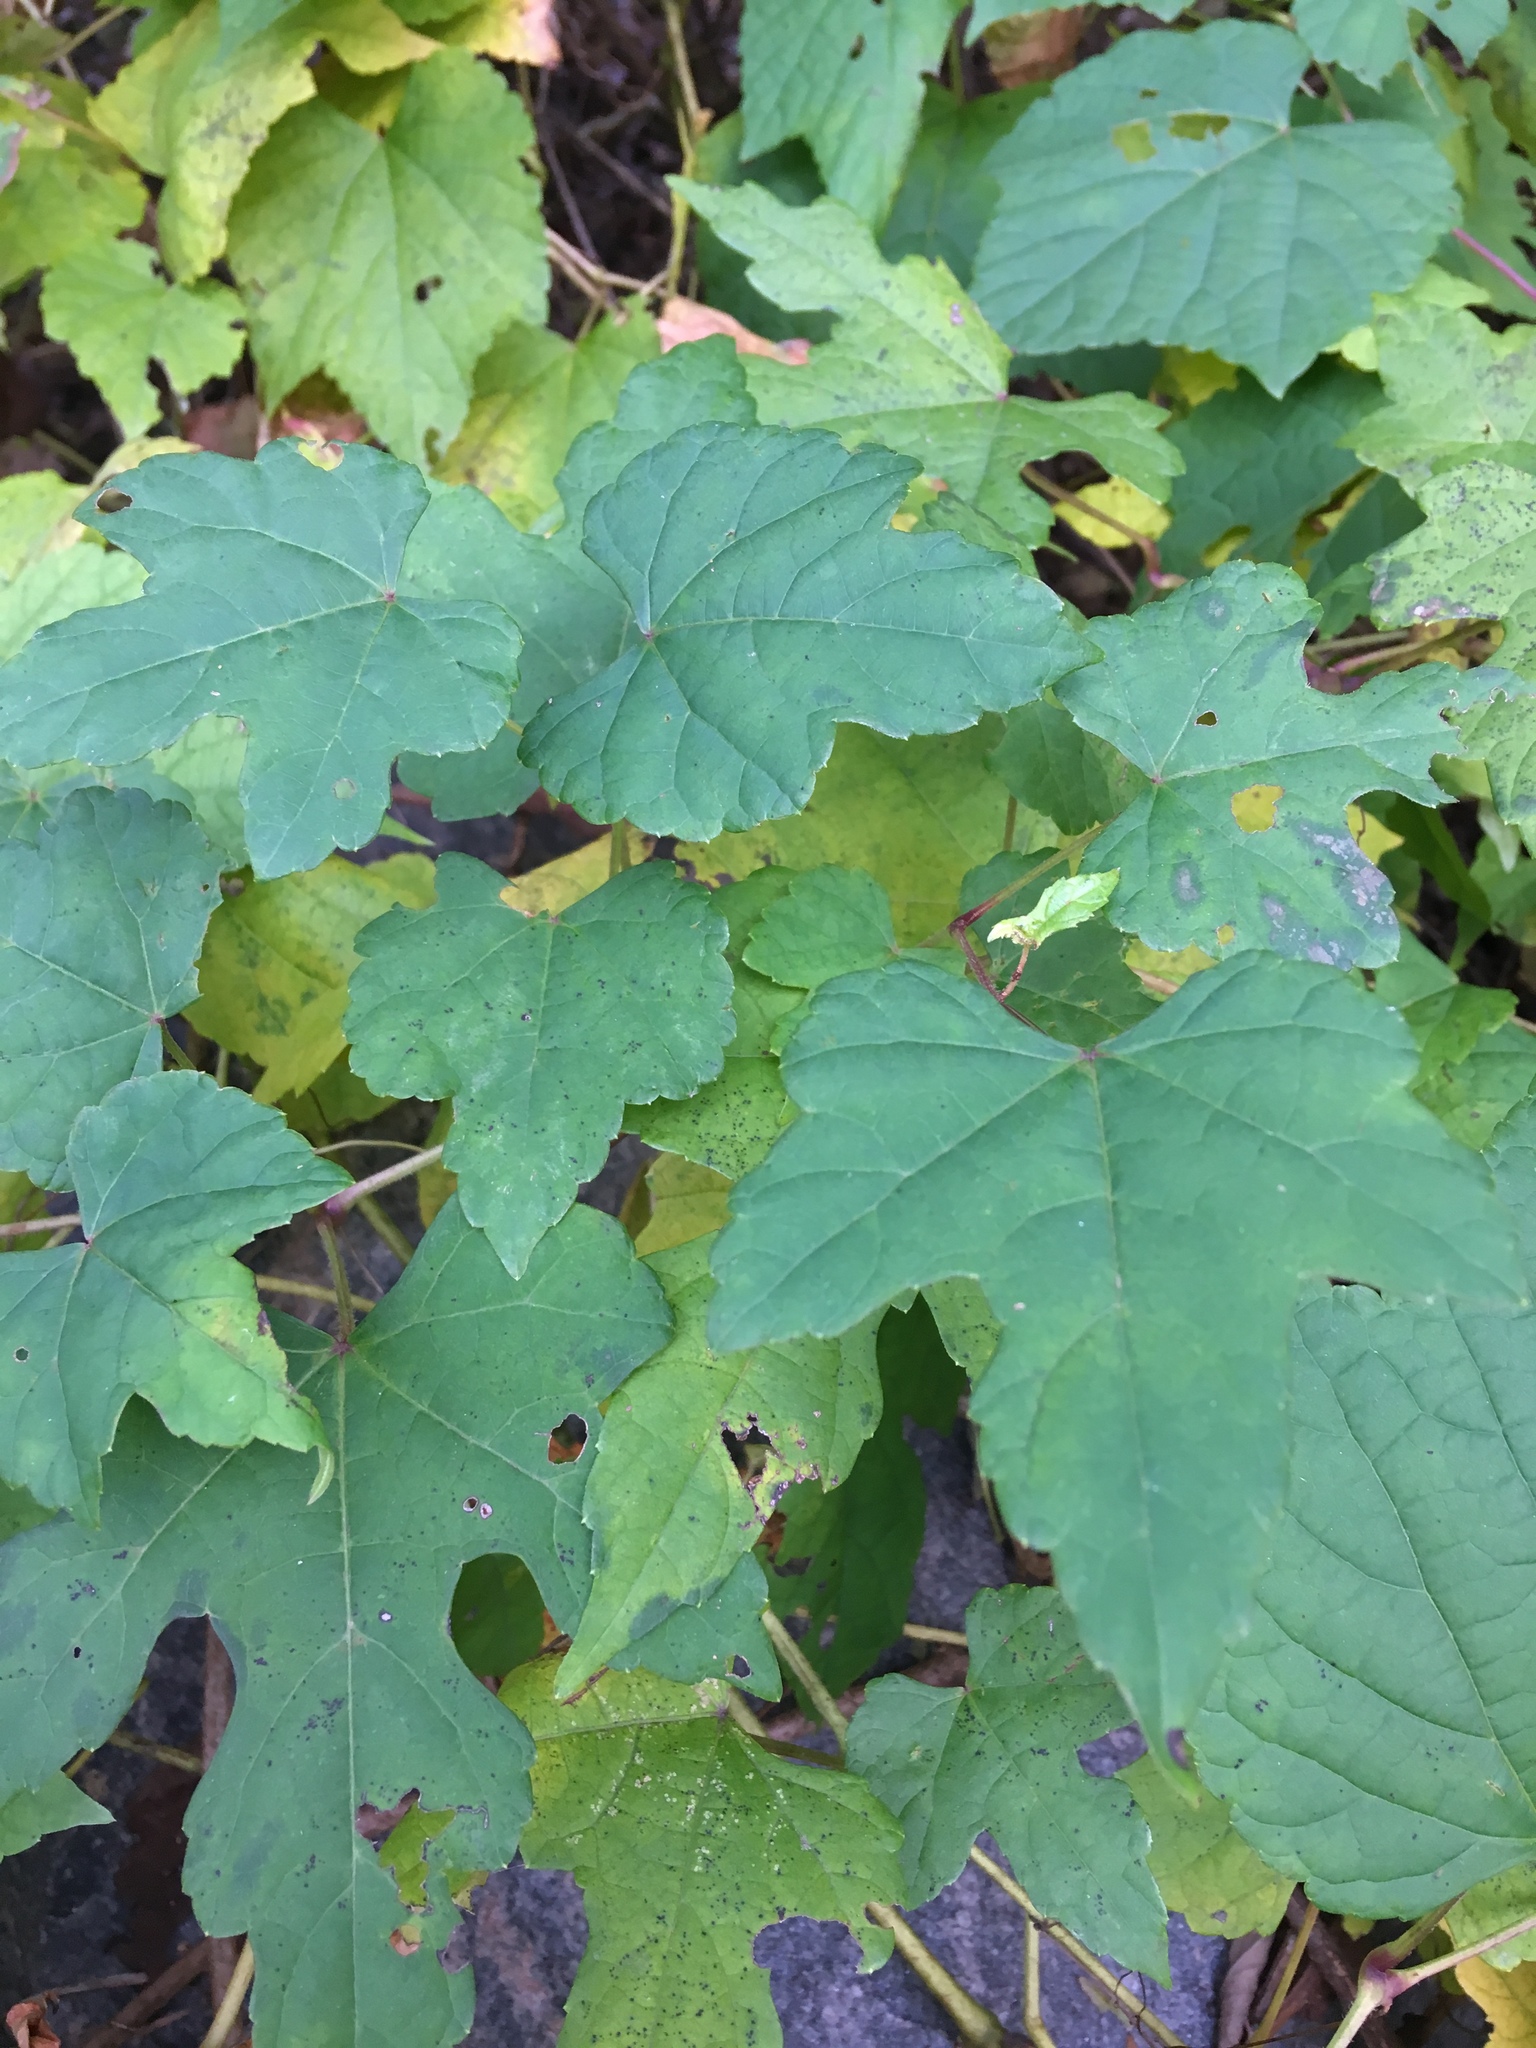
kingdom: Plantae
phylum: Tracheophyta
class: Magnoliopsida
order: Vitales
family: Vitaceae
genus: Ampelopsis
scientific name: Ampelopsis glandulosa
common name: Amur peppervine
